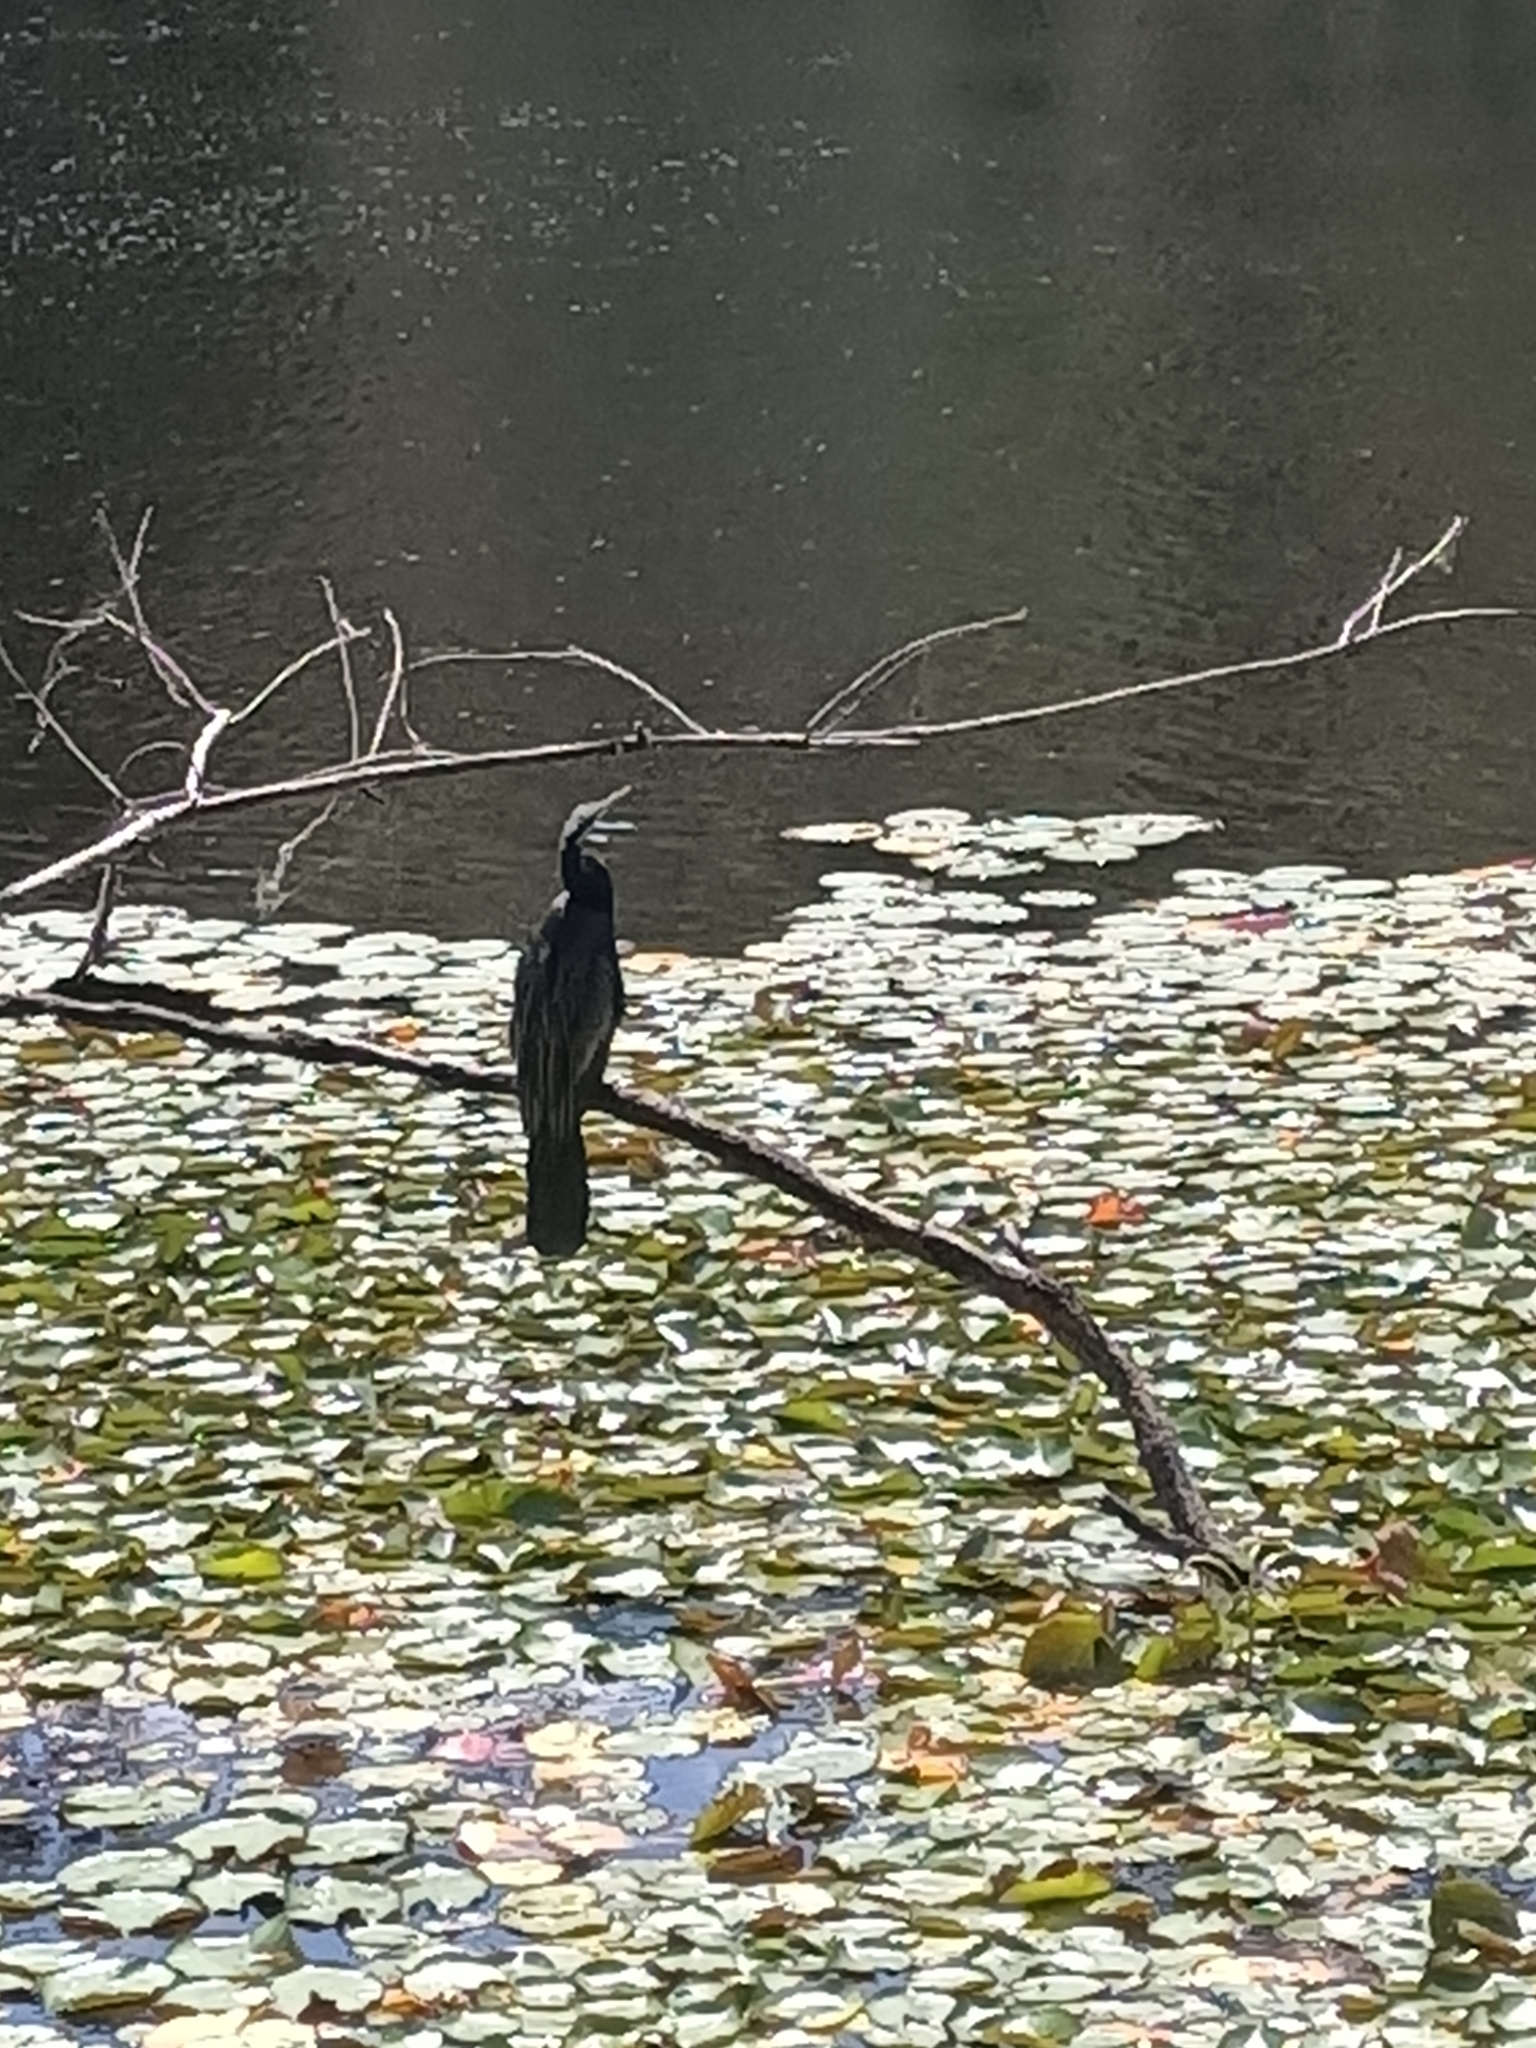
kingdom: Animalia
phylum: Chordata
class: Aves
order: Suliformes
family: Anhingidae
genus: Anhinga
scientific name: Anhinga novaehollandiae
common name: Australasian darter
